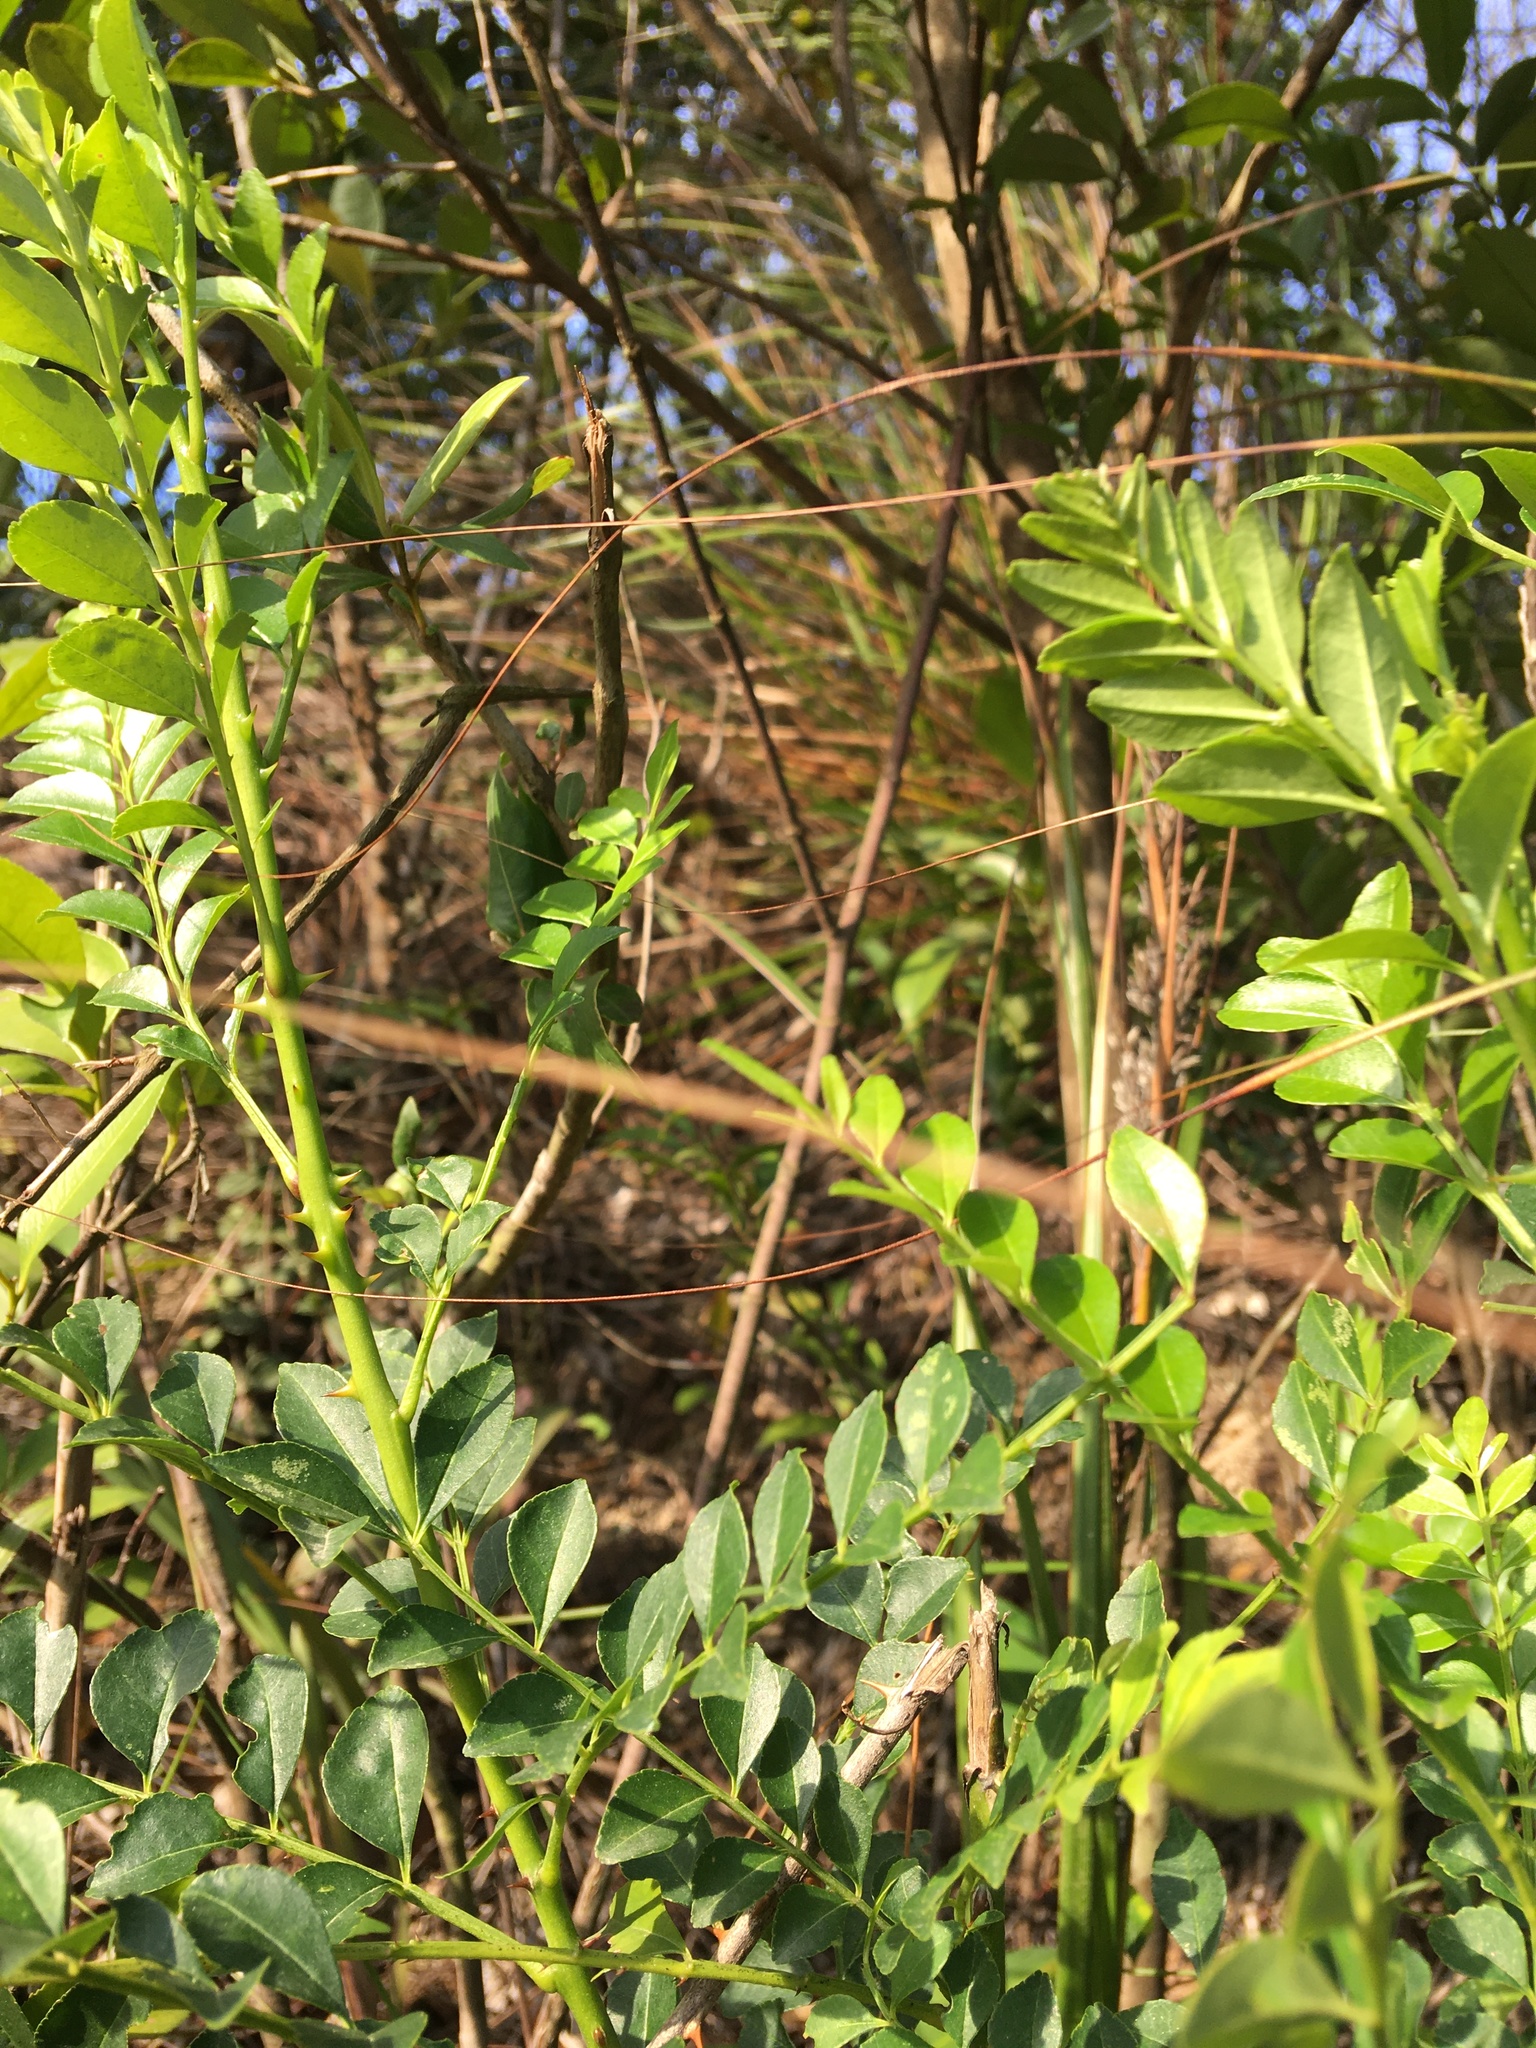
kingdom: Plantae
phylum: Tracheophyta
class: Magnoliopsida
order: Sapindales
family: Rutaceae
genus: Zanthoxylum
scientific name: Zanthoxylum avicennae
